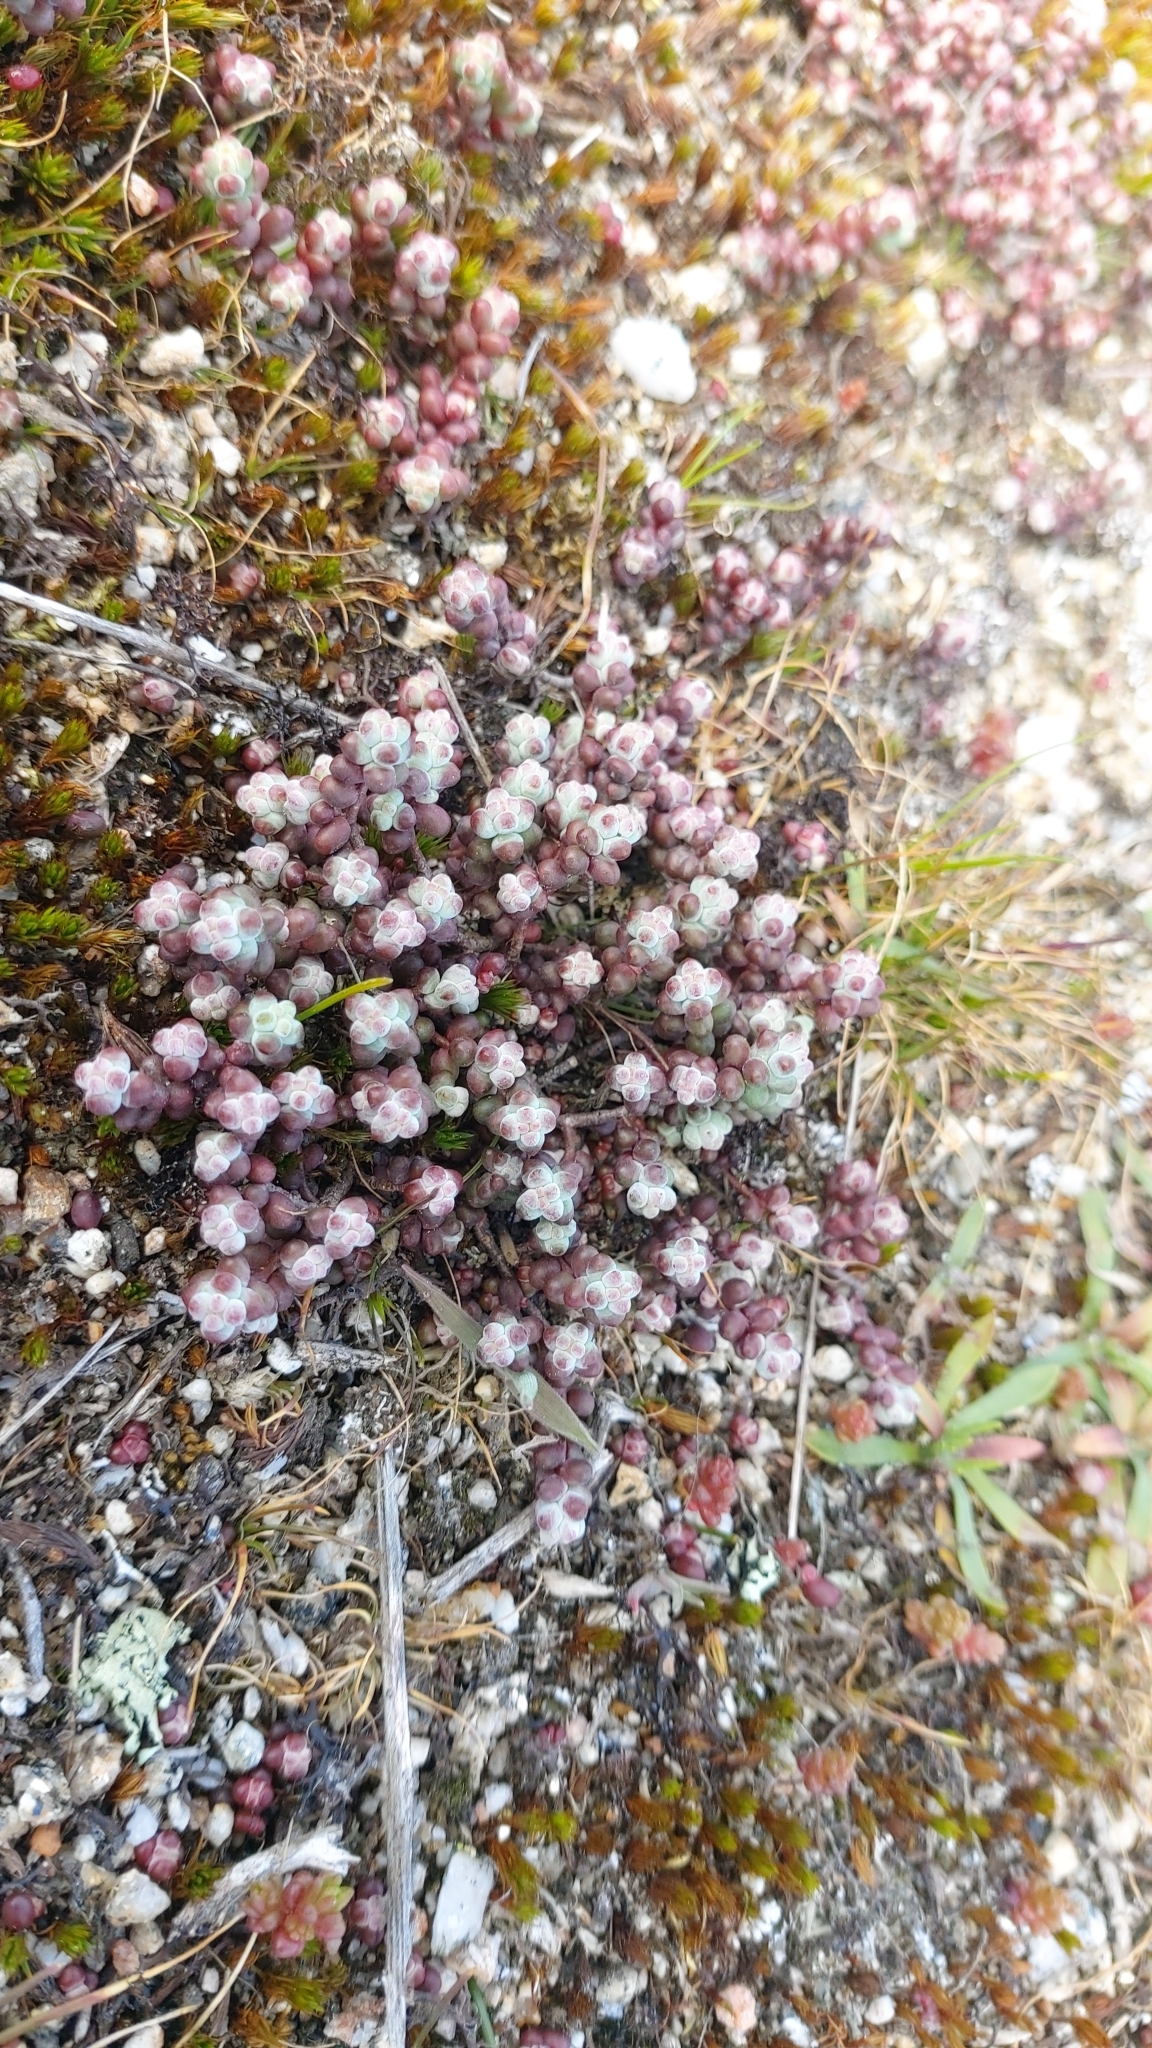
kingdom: Plantae
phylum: Tracheophyta
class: Magnoliopsida
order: Saxifragales
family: Crassulaceae
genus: Sedum
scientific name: Sedum brevifolium
